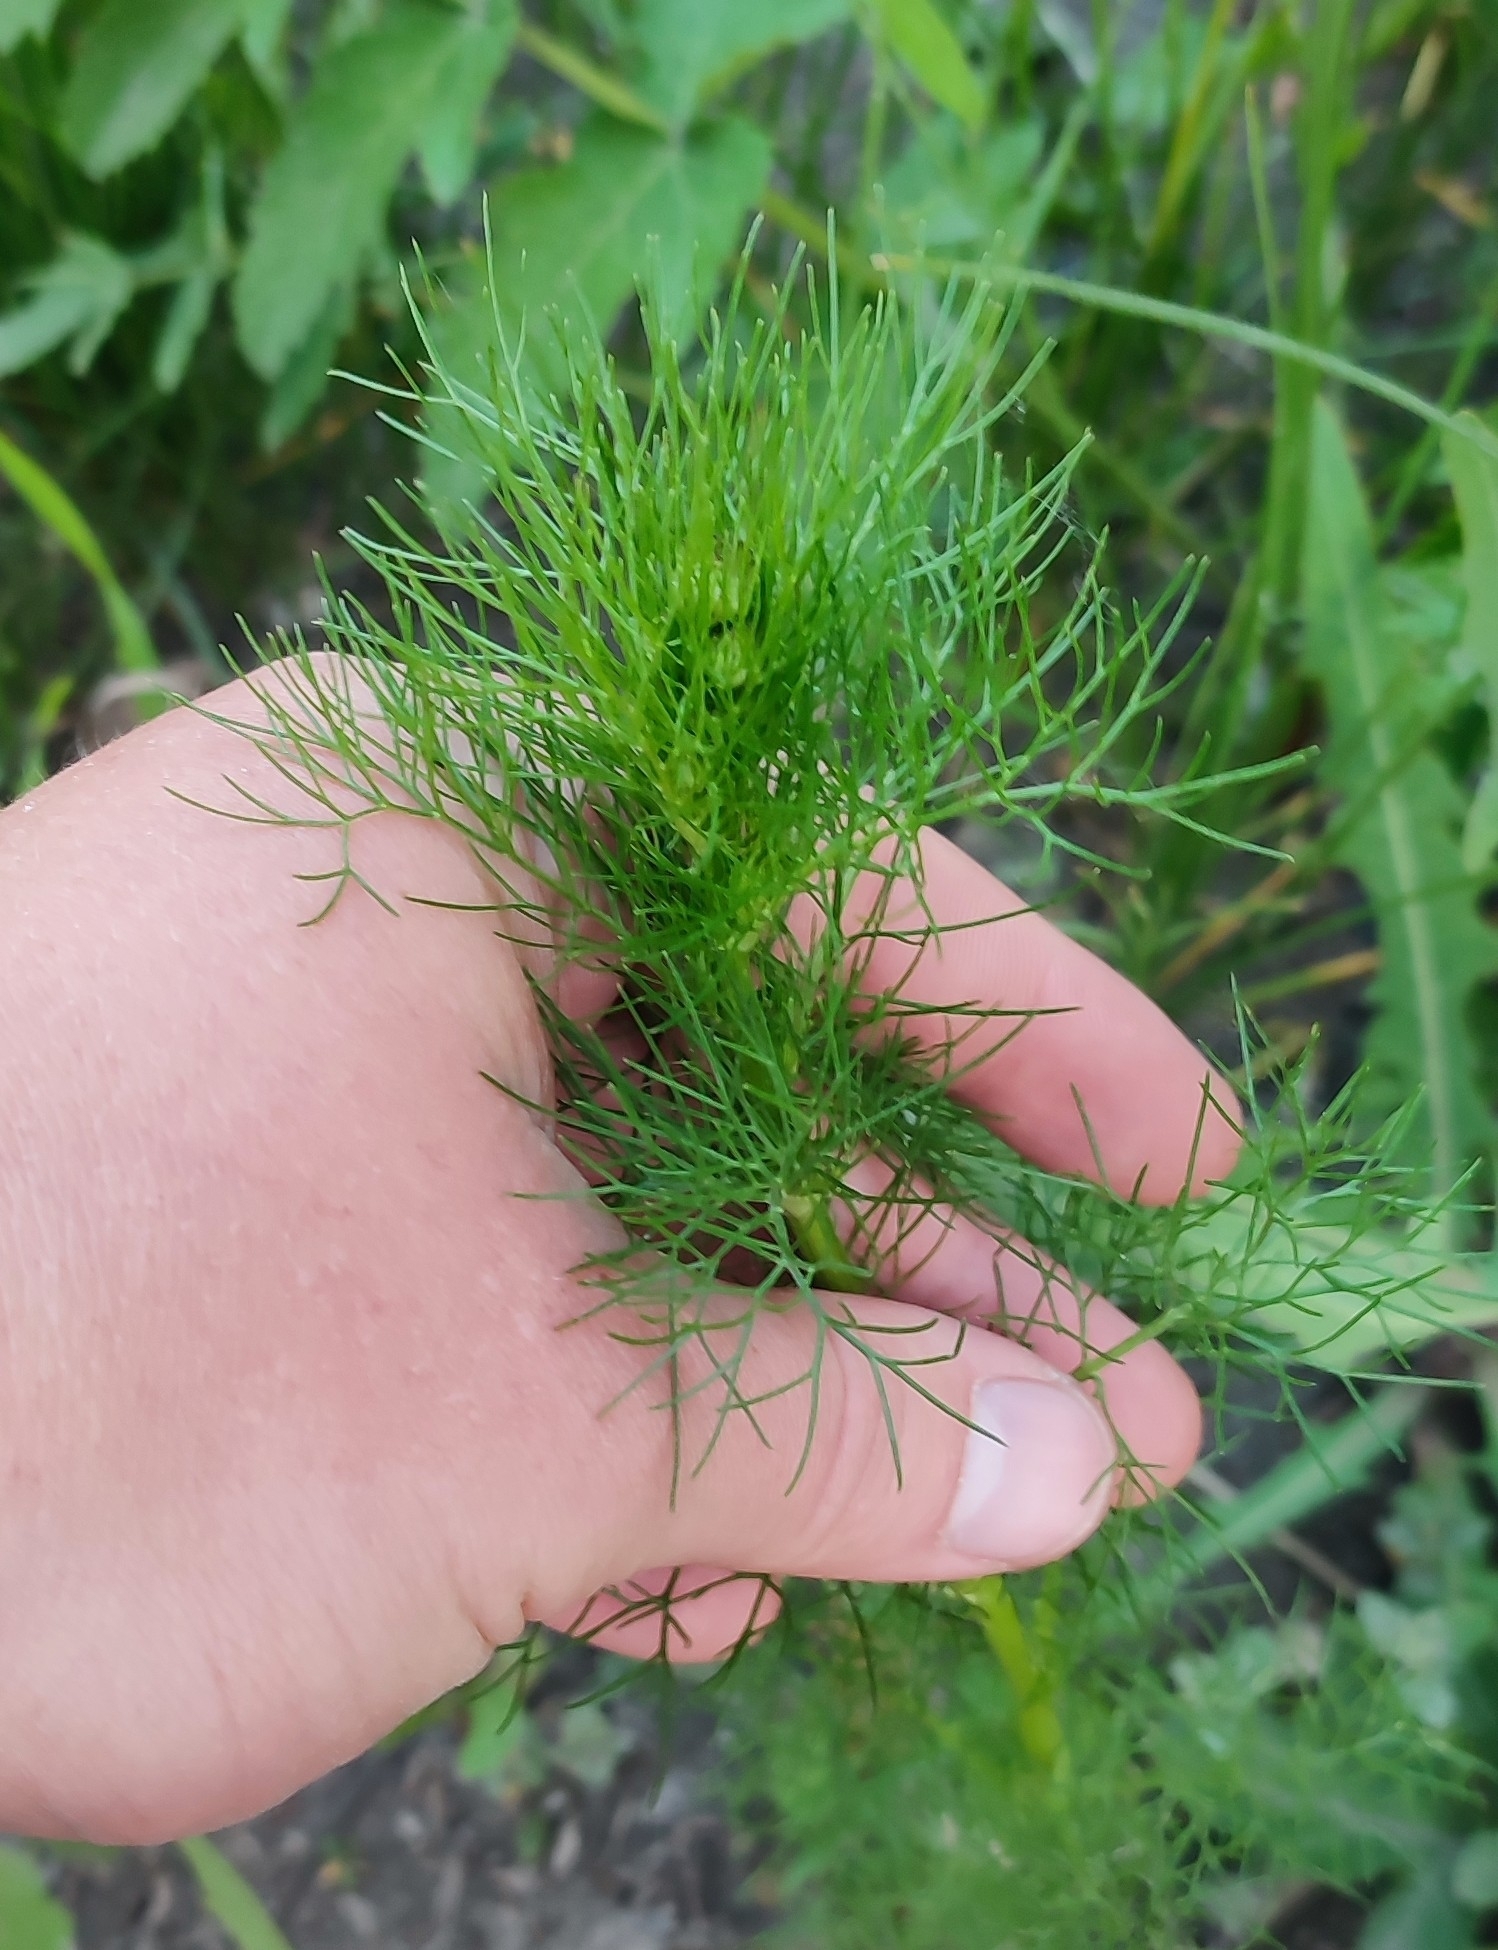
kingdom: Plantae
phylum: Tracheophyta
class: Magnoliopsida
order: Asterales
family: Asteraceae
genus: Tripleurospermum
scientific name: Tripleurospermum inodorum
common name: Scentless mayweed
